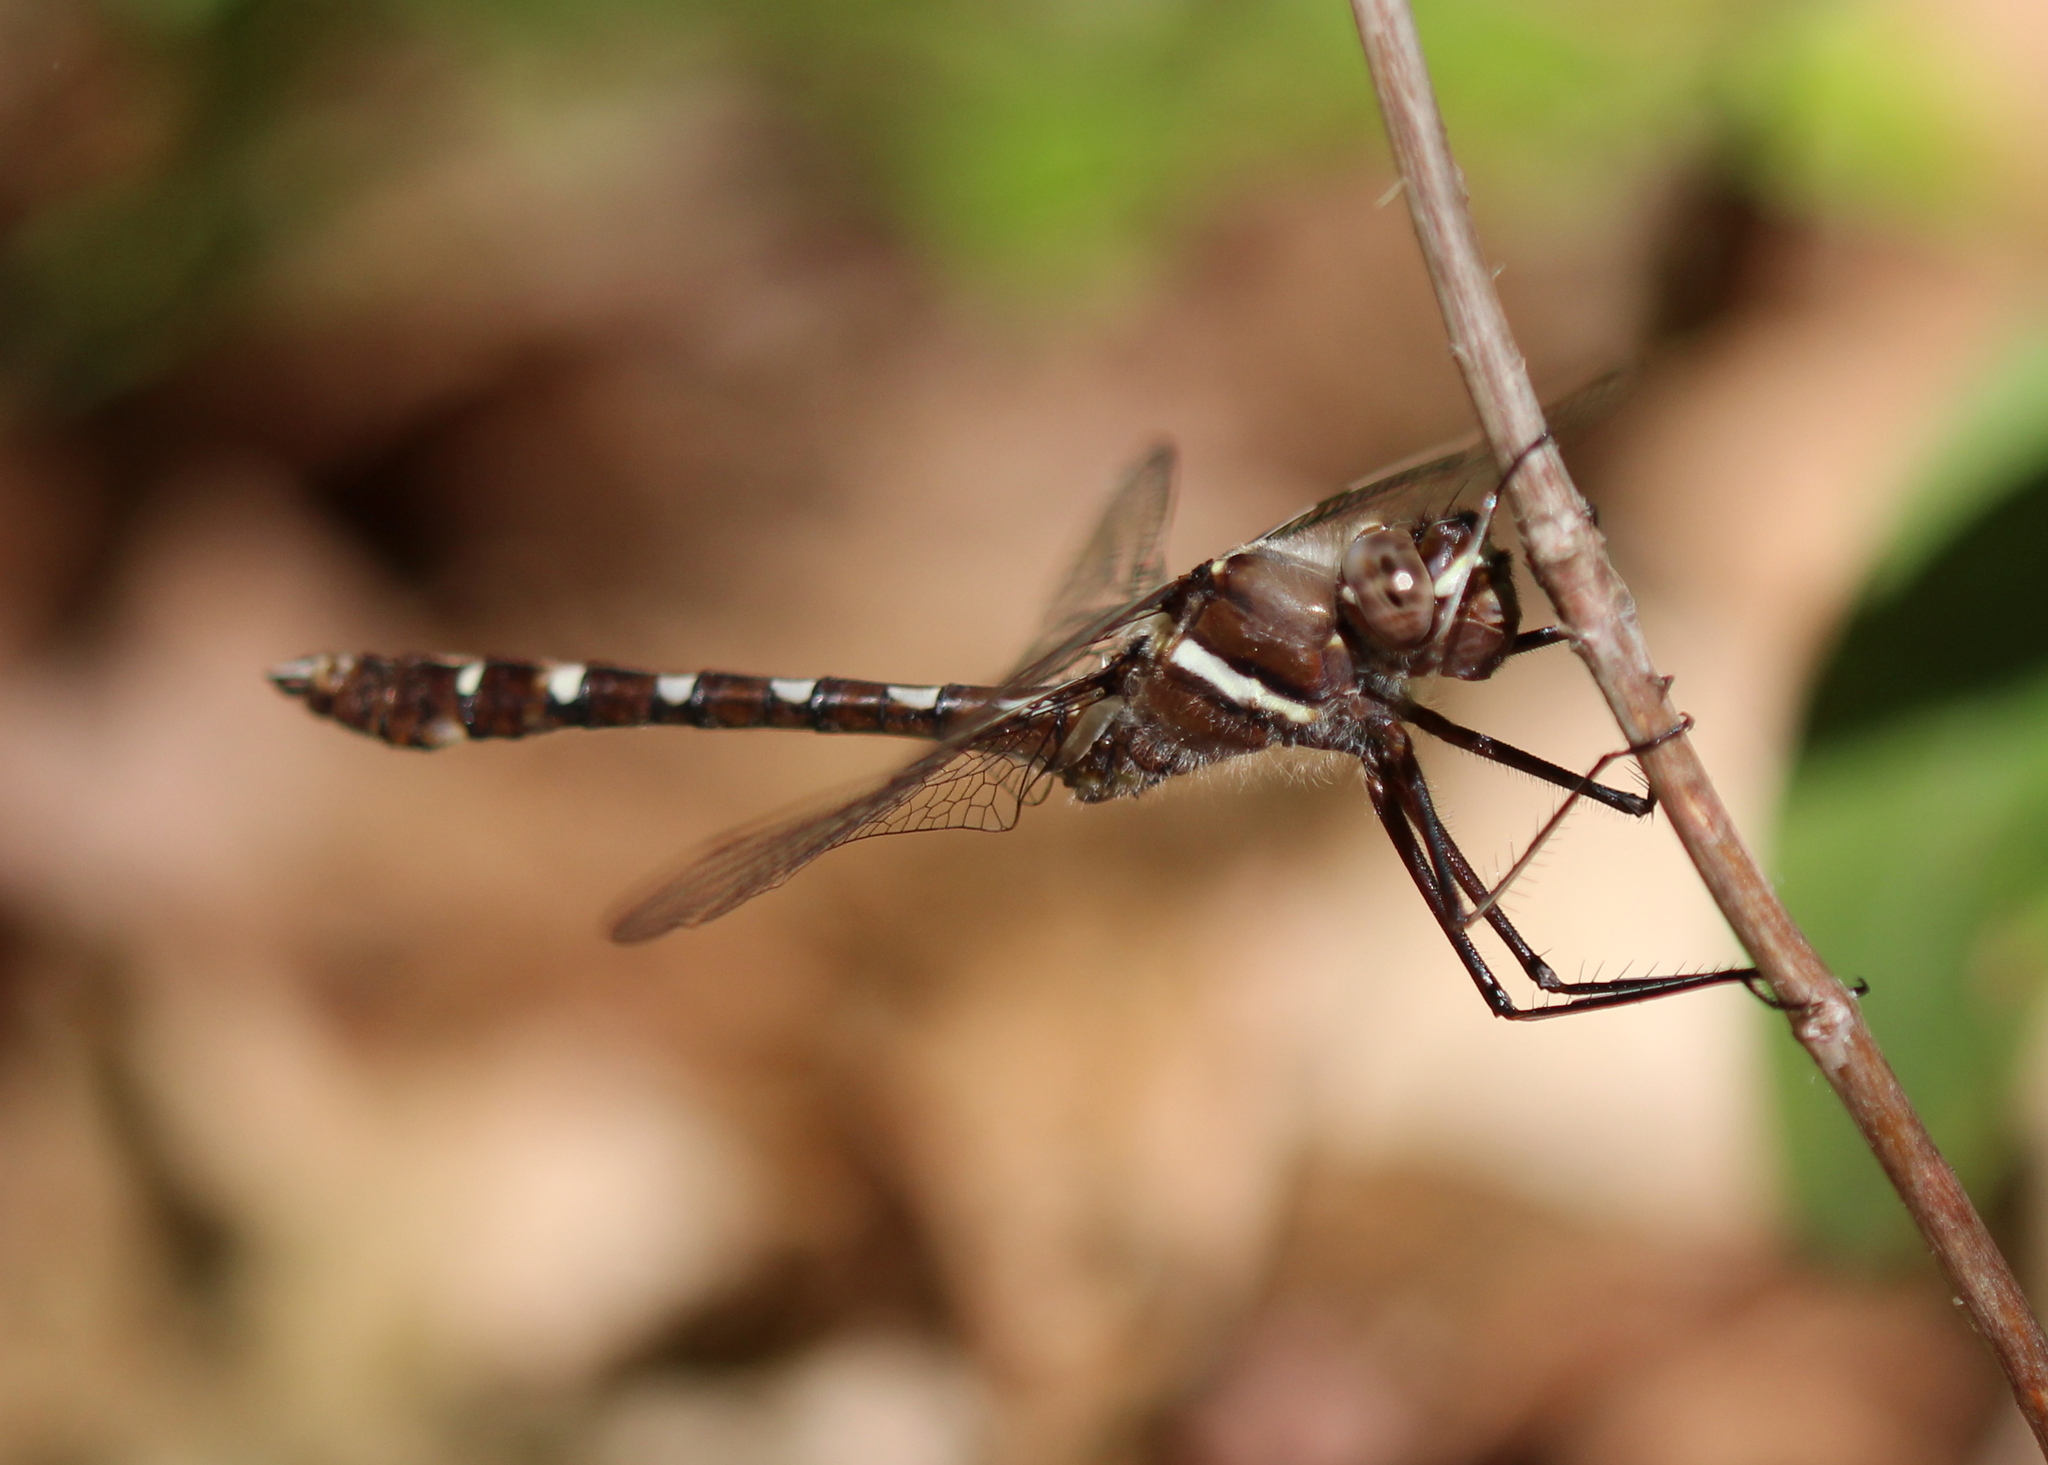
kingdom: Animalia
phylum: Arthropoda
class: Insecta
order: Odonata
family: Macromiidae
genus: Didymops
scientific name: Didymops transversa
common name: Stream cruiser
